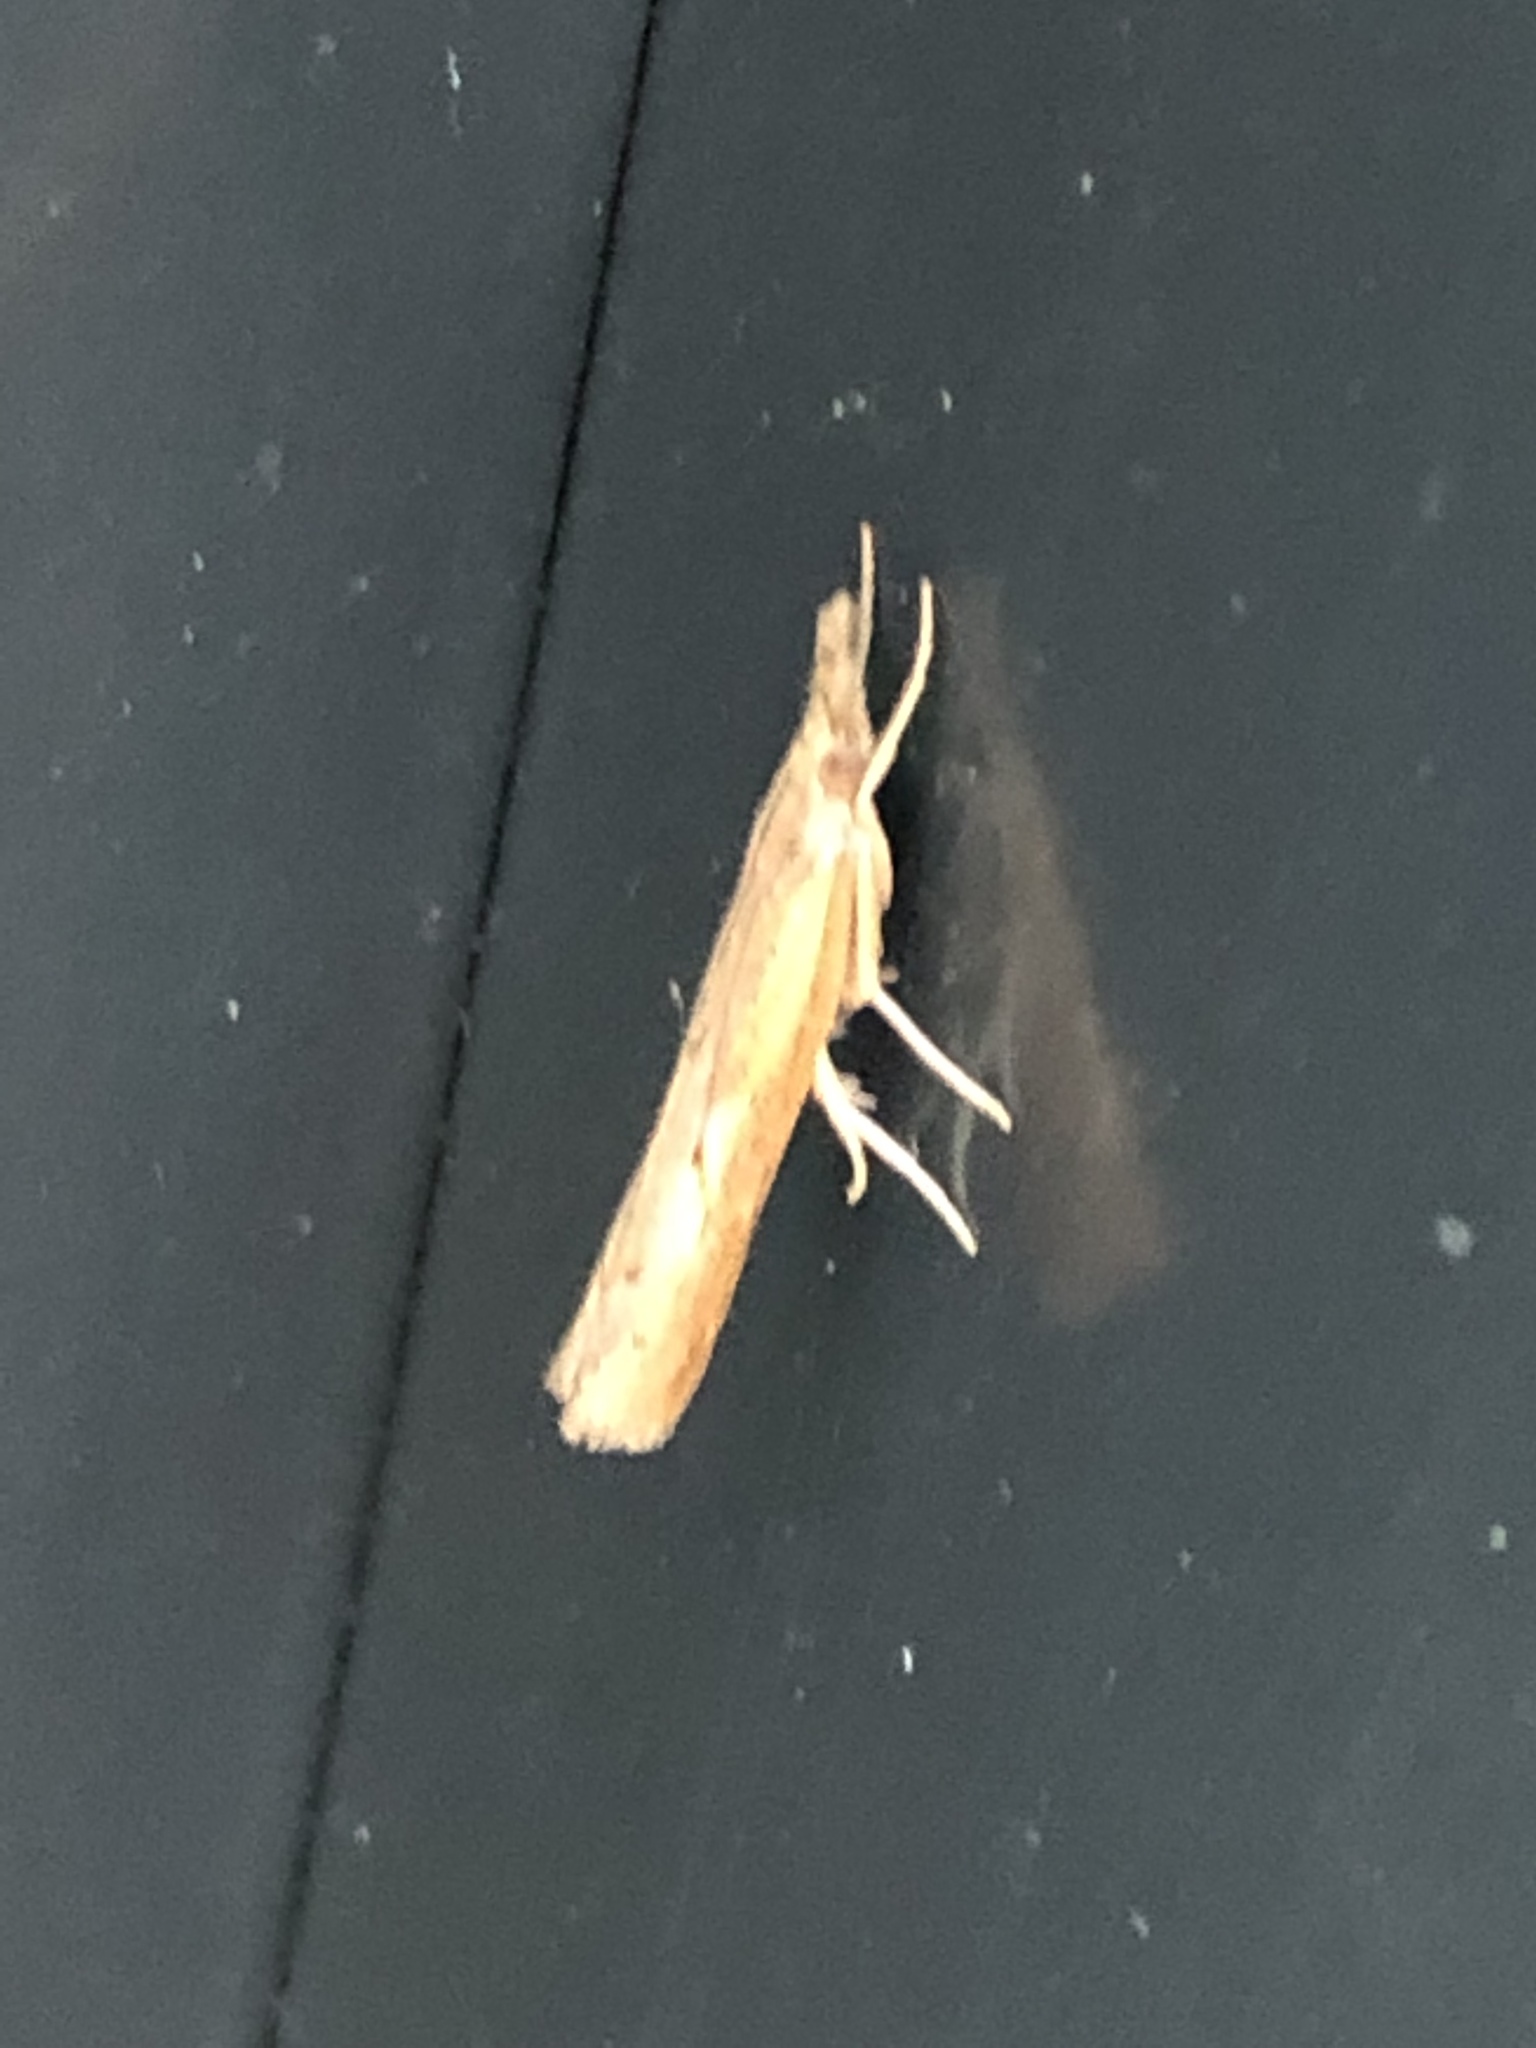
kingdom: Animalia
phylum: Arthropoda
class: Insecta
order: Lepidoptera
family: Crambidae
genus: Chrysoteuchia
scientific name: Chrysoteuchia culmella
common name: Garden grass-veneer
